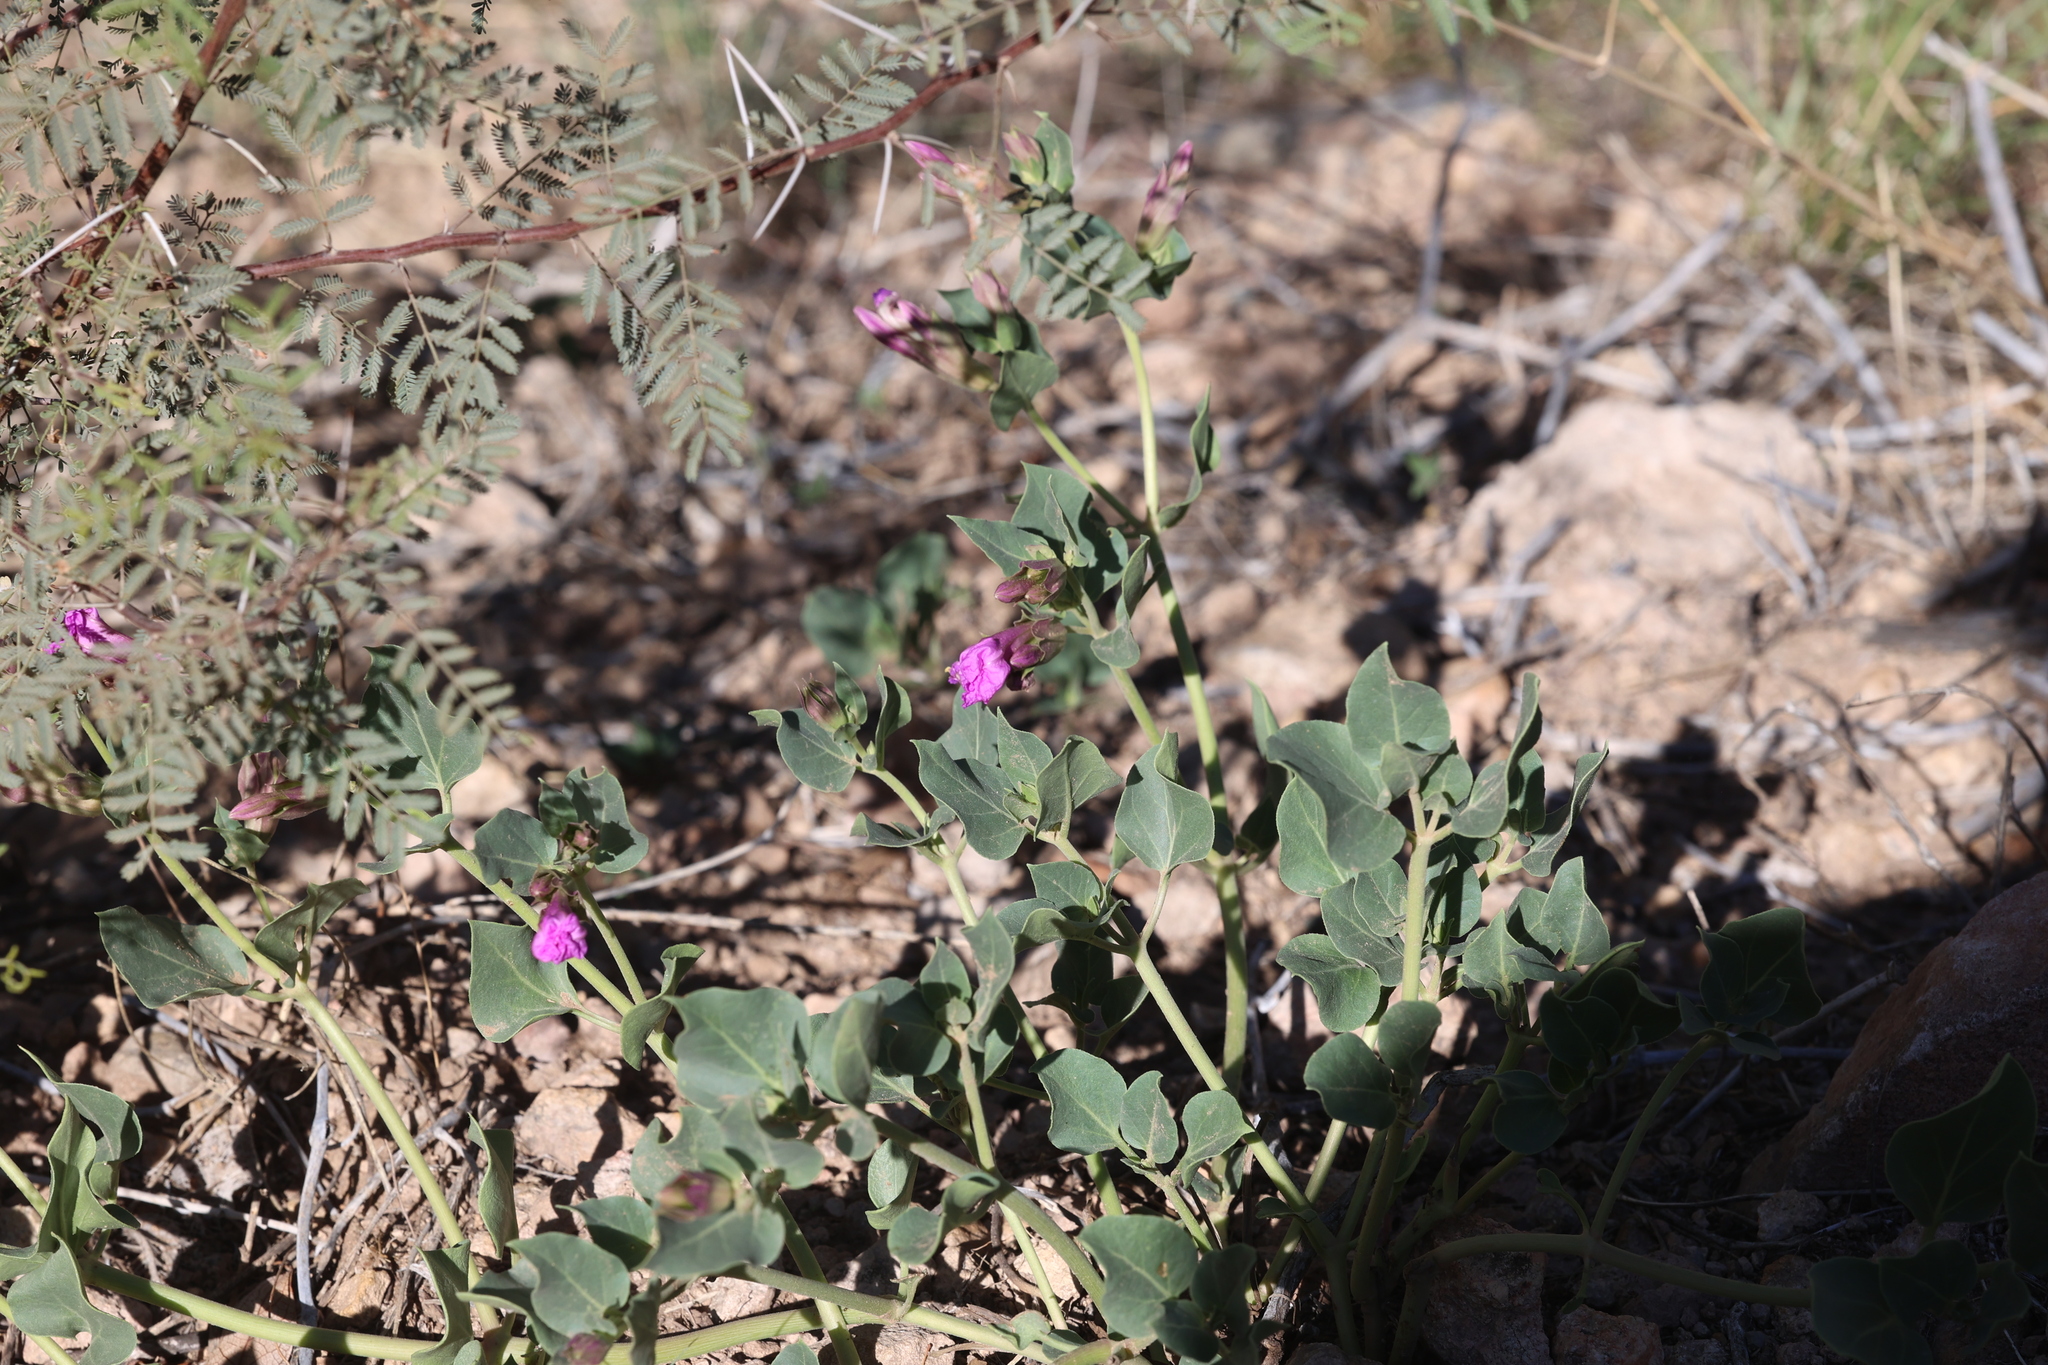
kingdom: Plantae
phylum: Tracheophyta
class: Magnoliopsida
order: Caryophyllales
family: Nyctaginaceae
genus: Mirabilis
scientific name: Mirabilis multiflora
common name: Froebel's four-o'clock
